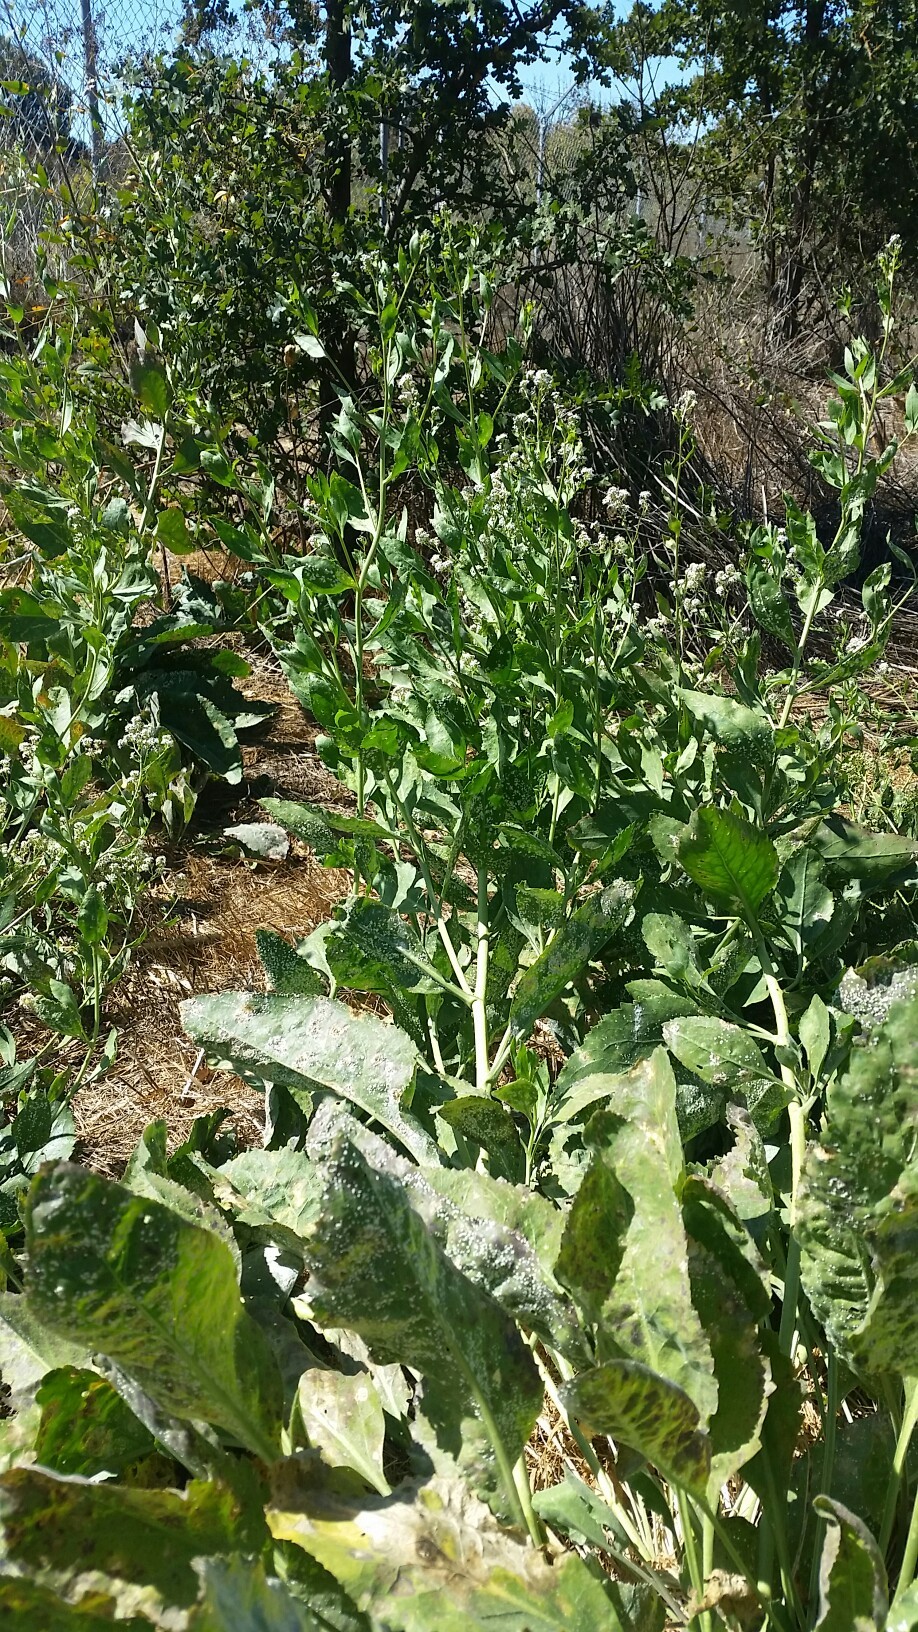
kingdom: Plantae
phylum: Tracheophyta
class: Magnoliopsida
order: Brassicales
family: Brassicaceae
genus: Lepidium
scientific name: Lepidium latifolium
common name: Dittander
